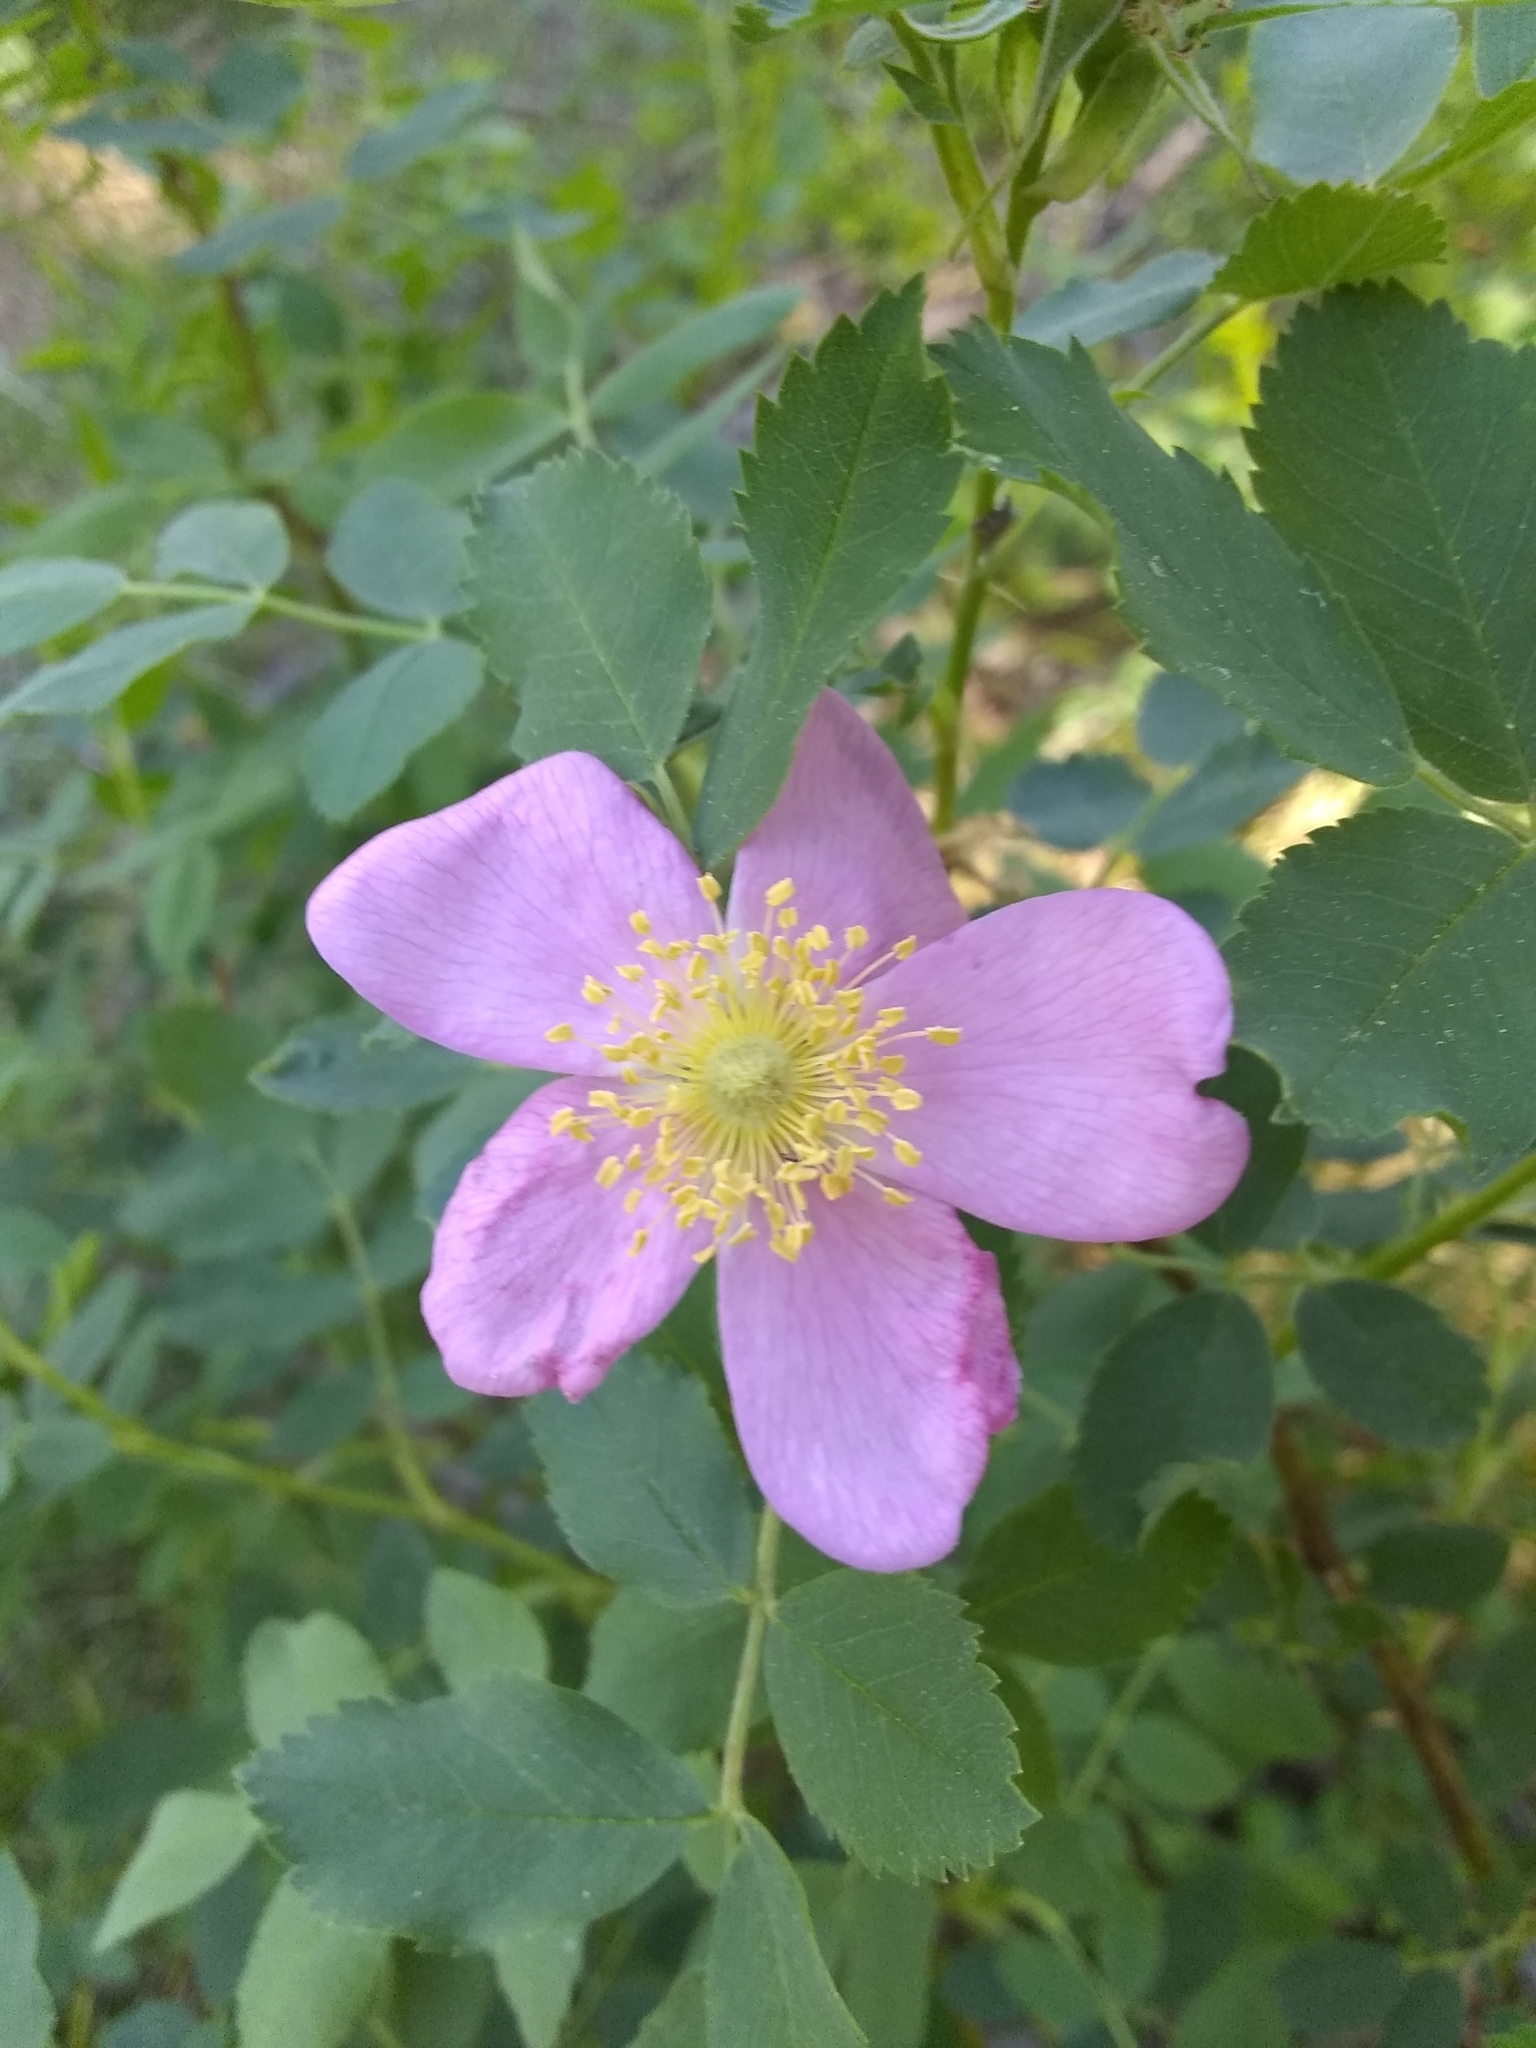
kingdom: Plantae
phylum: Tracheophyta
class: Magnoliopsida
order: Rosales
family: Rosaceae
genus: Rosa
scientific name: Rosa woodsii
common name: Woods's rose
